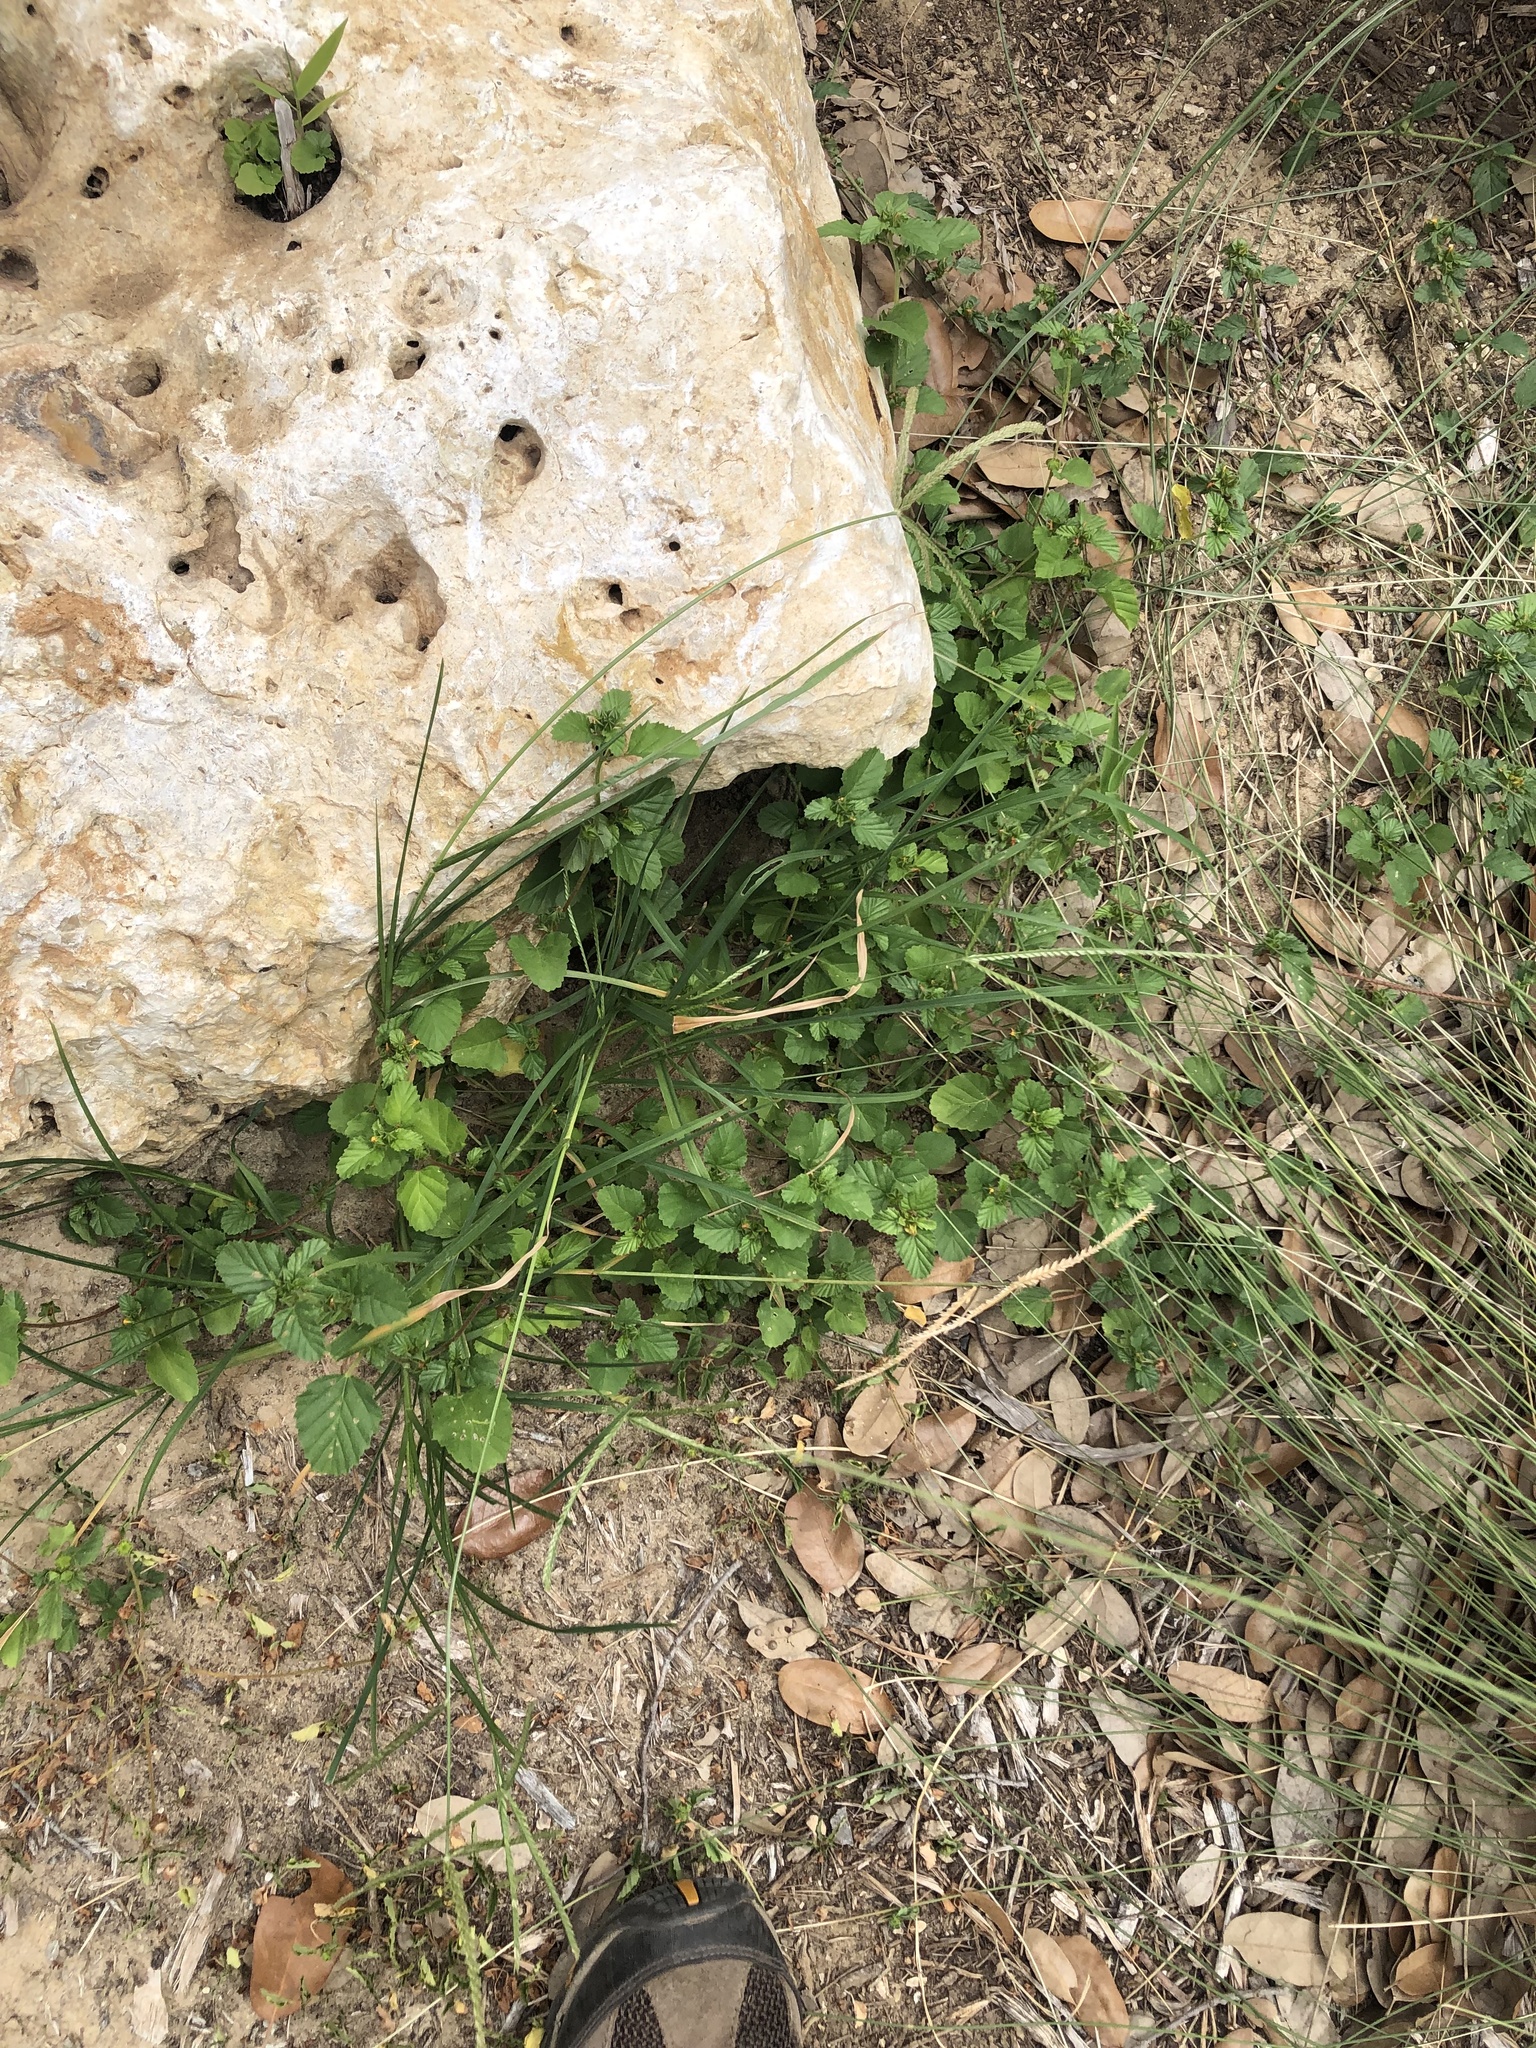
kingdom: Plantae
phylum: Tracheophyta
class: Liliopsida
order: Poales
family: Poaceae
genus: Eleusine
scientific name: Eleusine indica
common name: Yard-grass
